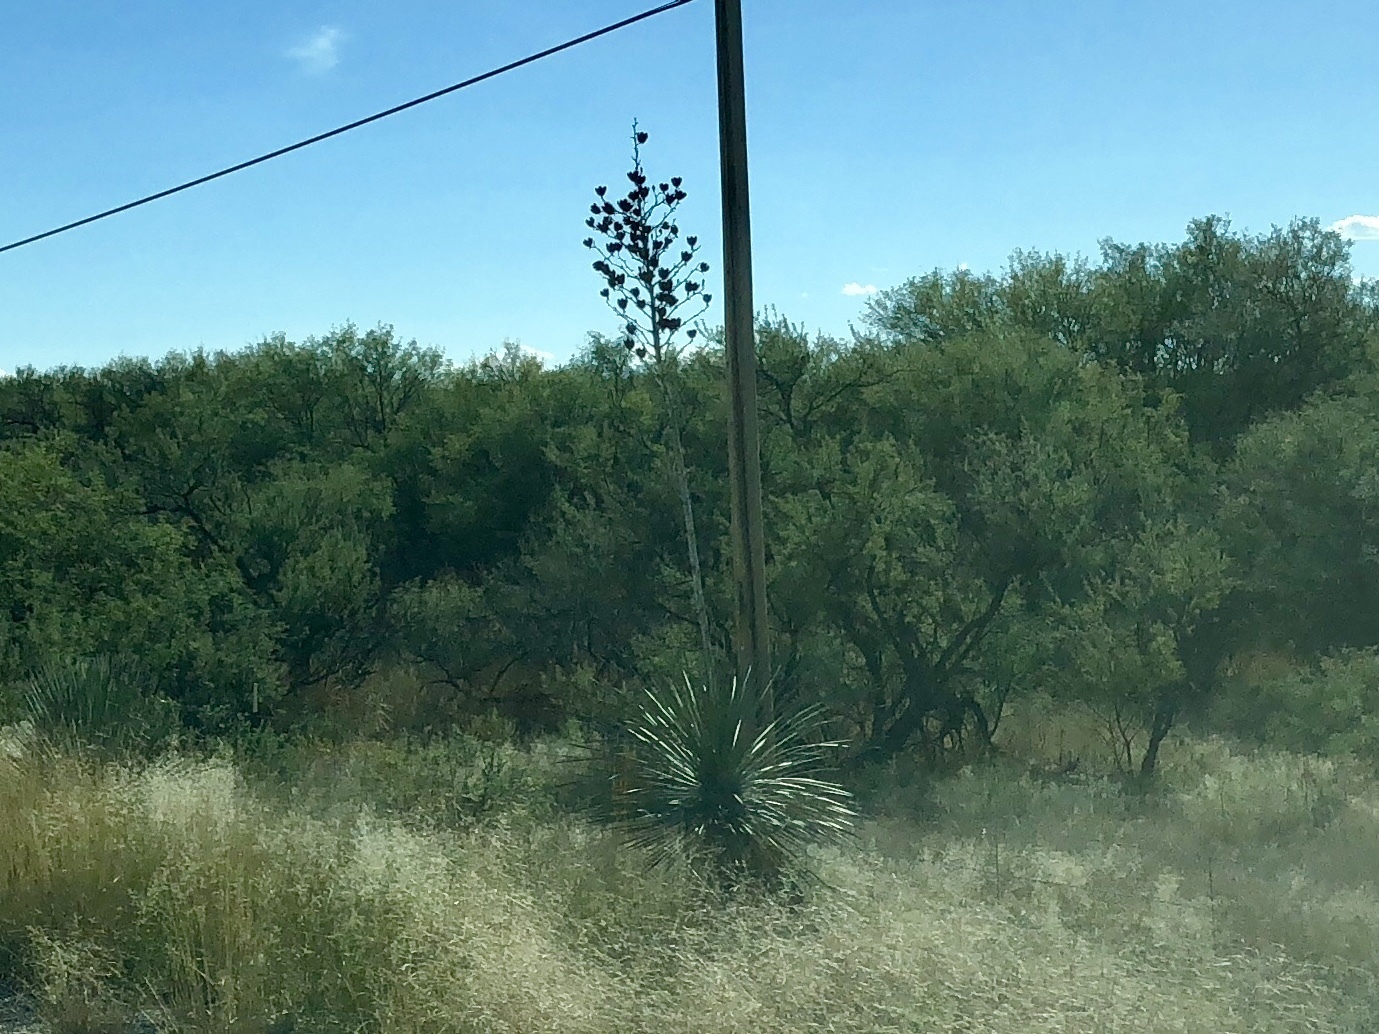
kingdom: Plantae
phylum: Tracheophyta
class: Liliopsida
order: Asparagales
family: Asparagaceae
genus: Yucca
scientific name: Yucca elata
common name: Palmella
